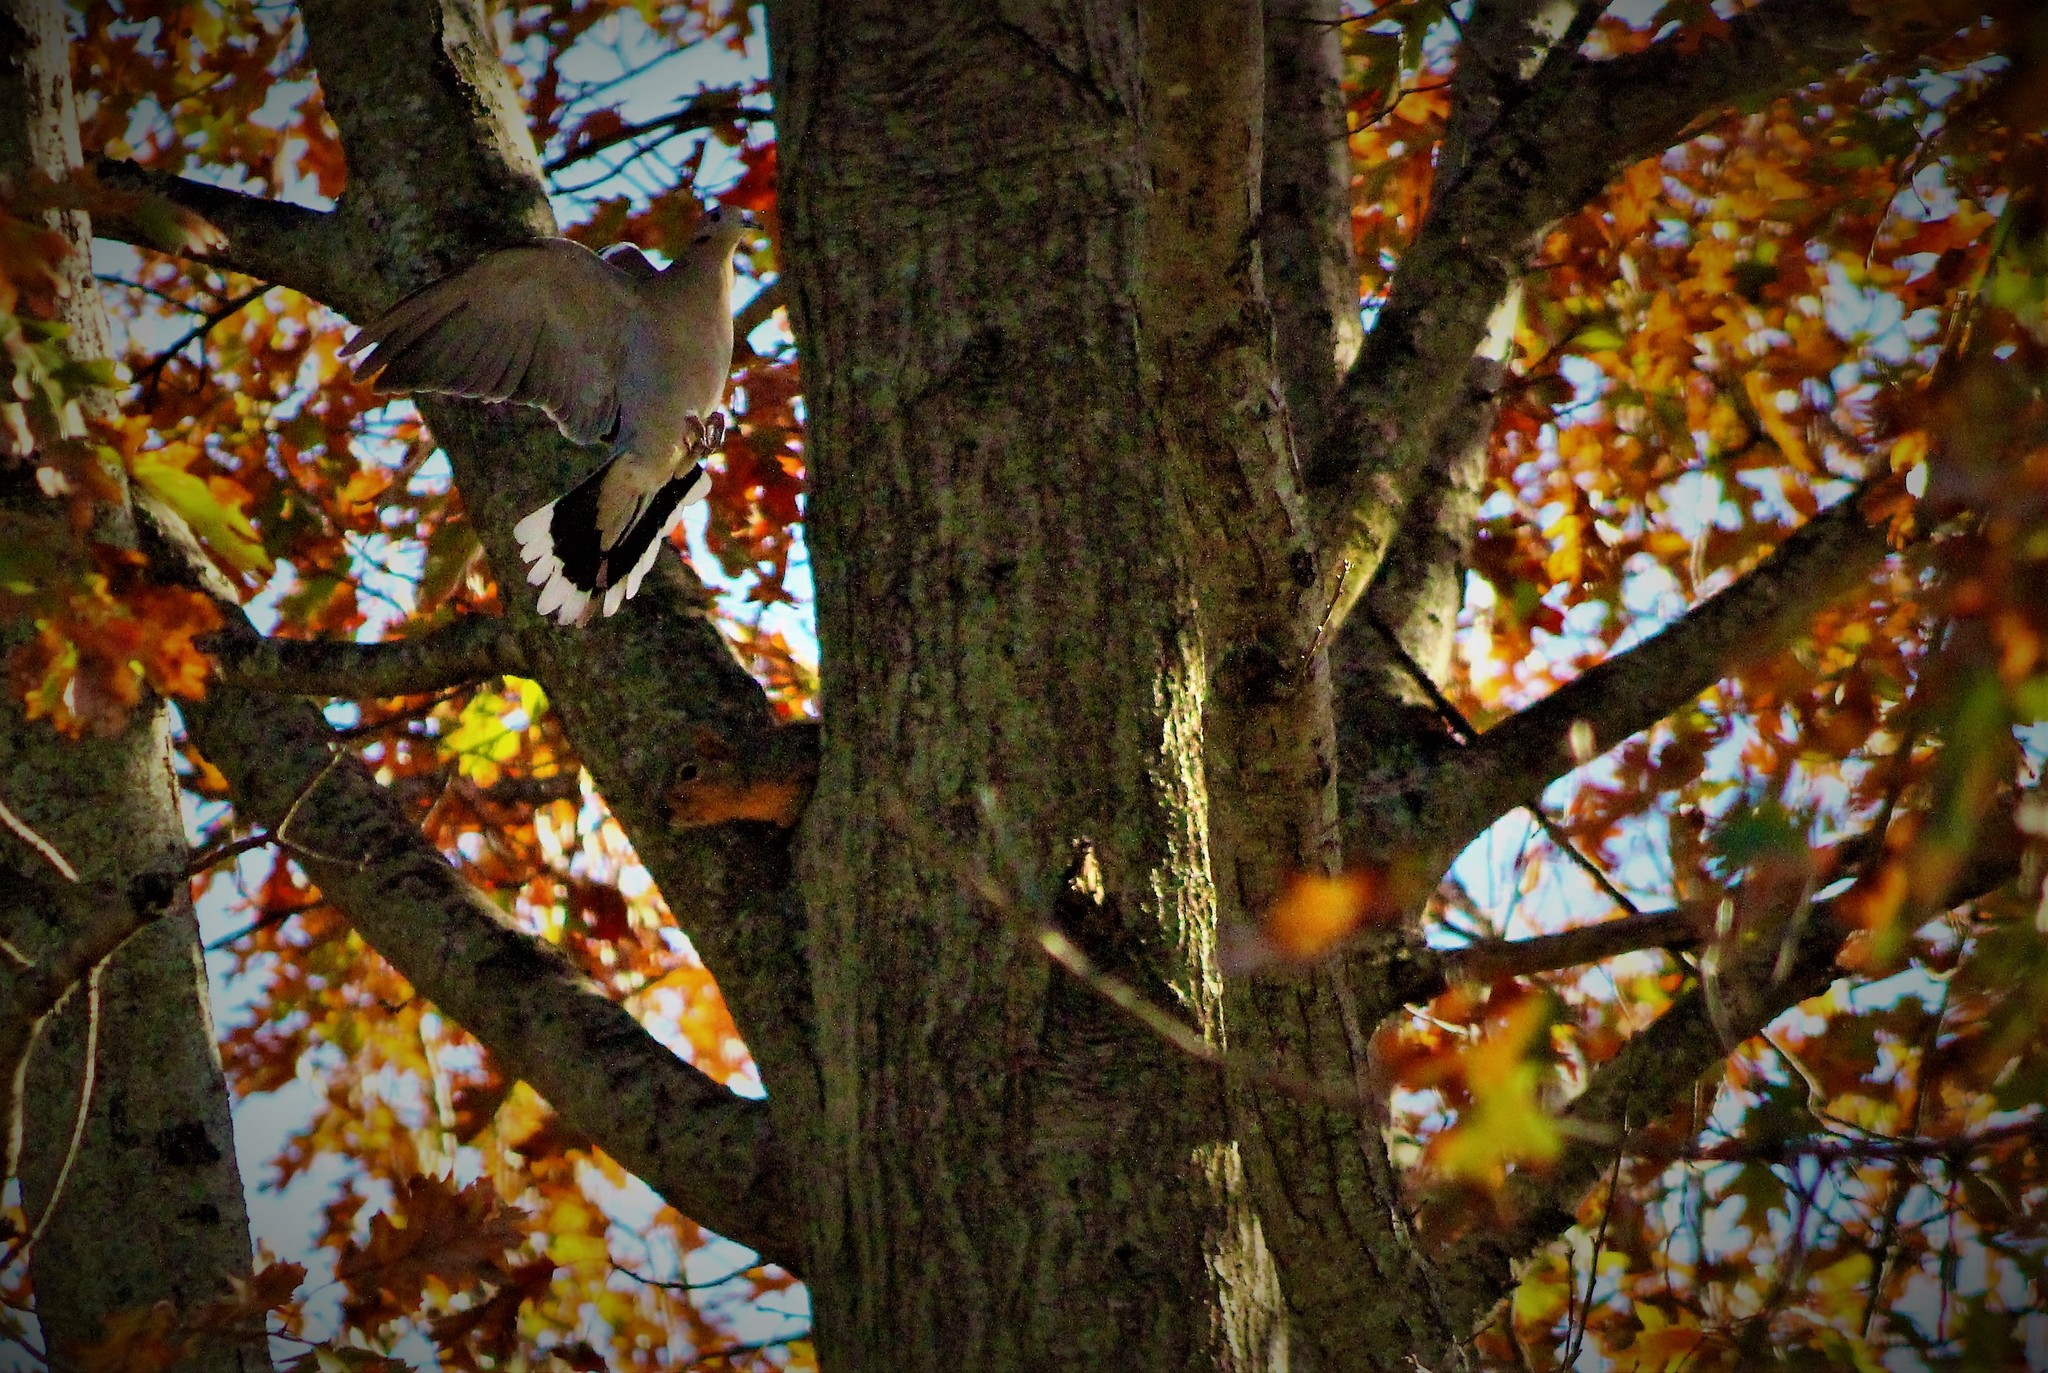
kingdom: Animalia
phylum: Chordata
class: Aves
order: Columbiformes
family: Columbidae
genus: Zenaida
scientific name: Zenaida asiatica
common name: White-winged dove
